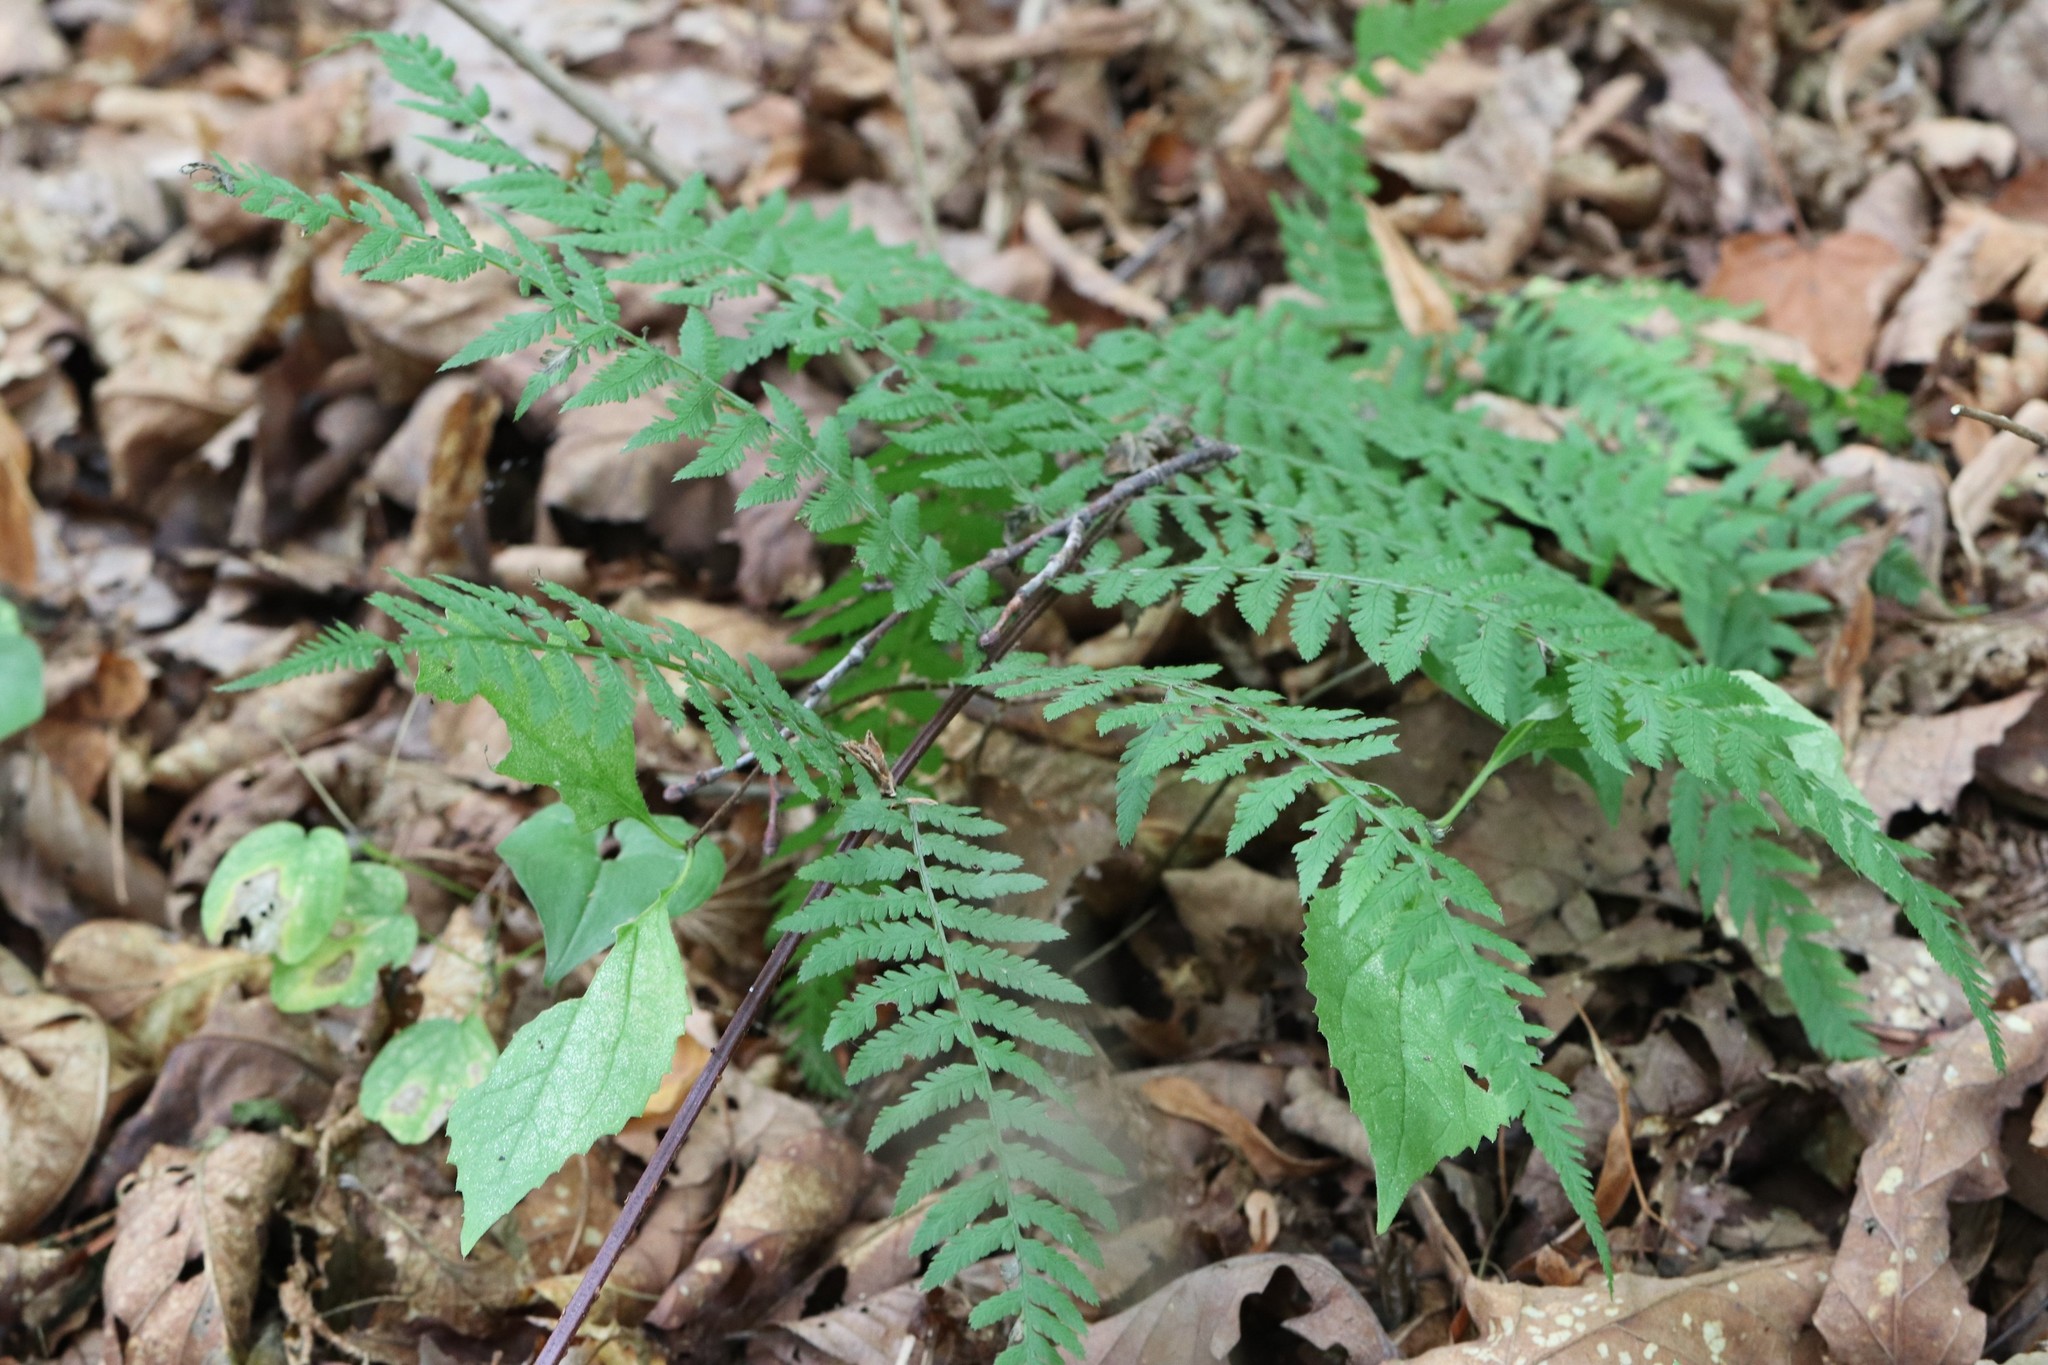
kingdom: Plantae
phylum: Tracheophyta
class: Polypodiopsida
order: Polypodiales
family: Athyriaceae
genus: Athyrium
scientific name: Athyrium rubripes
